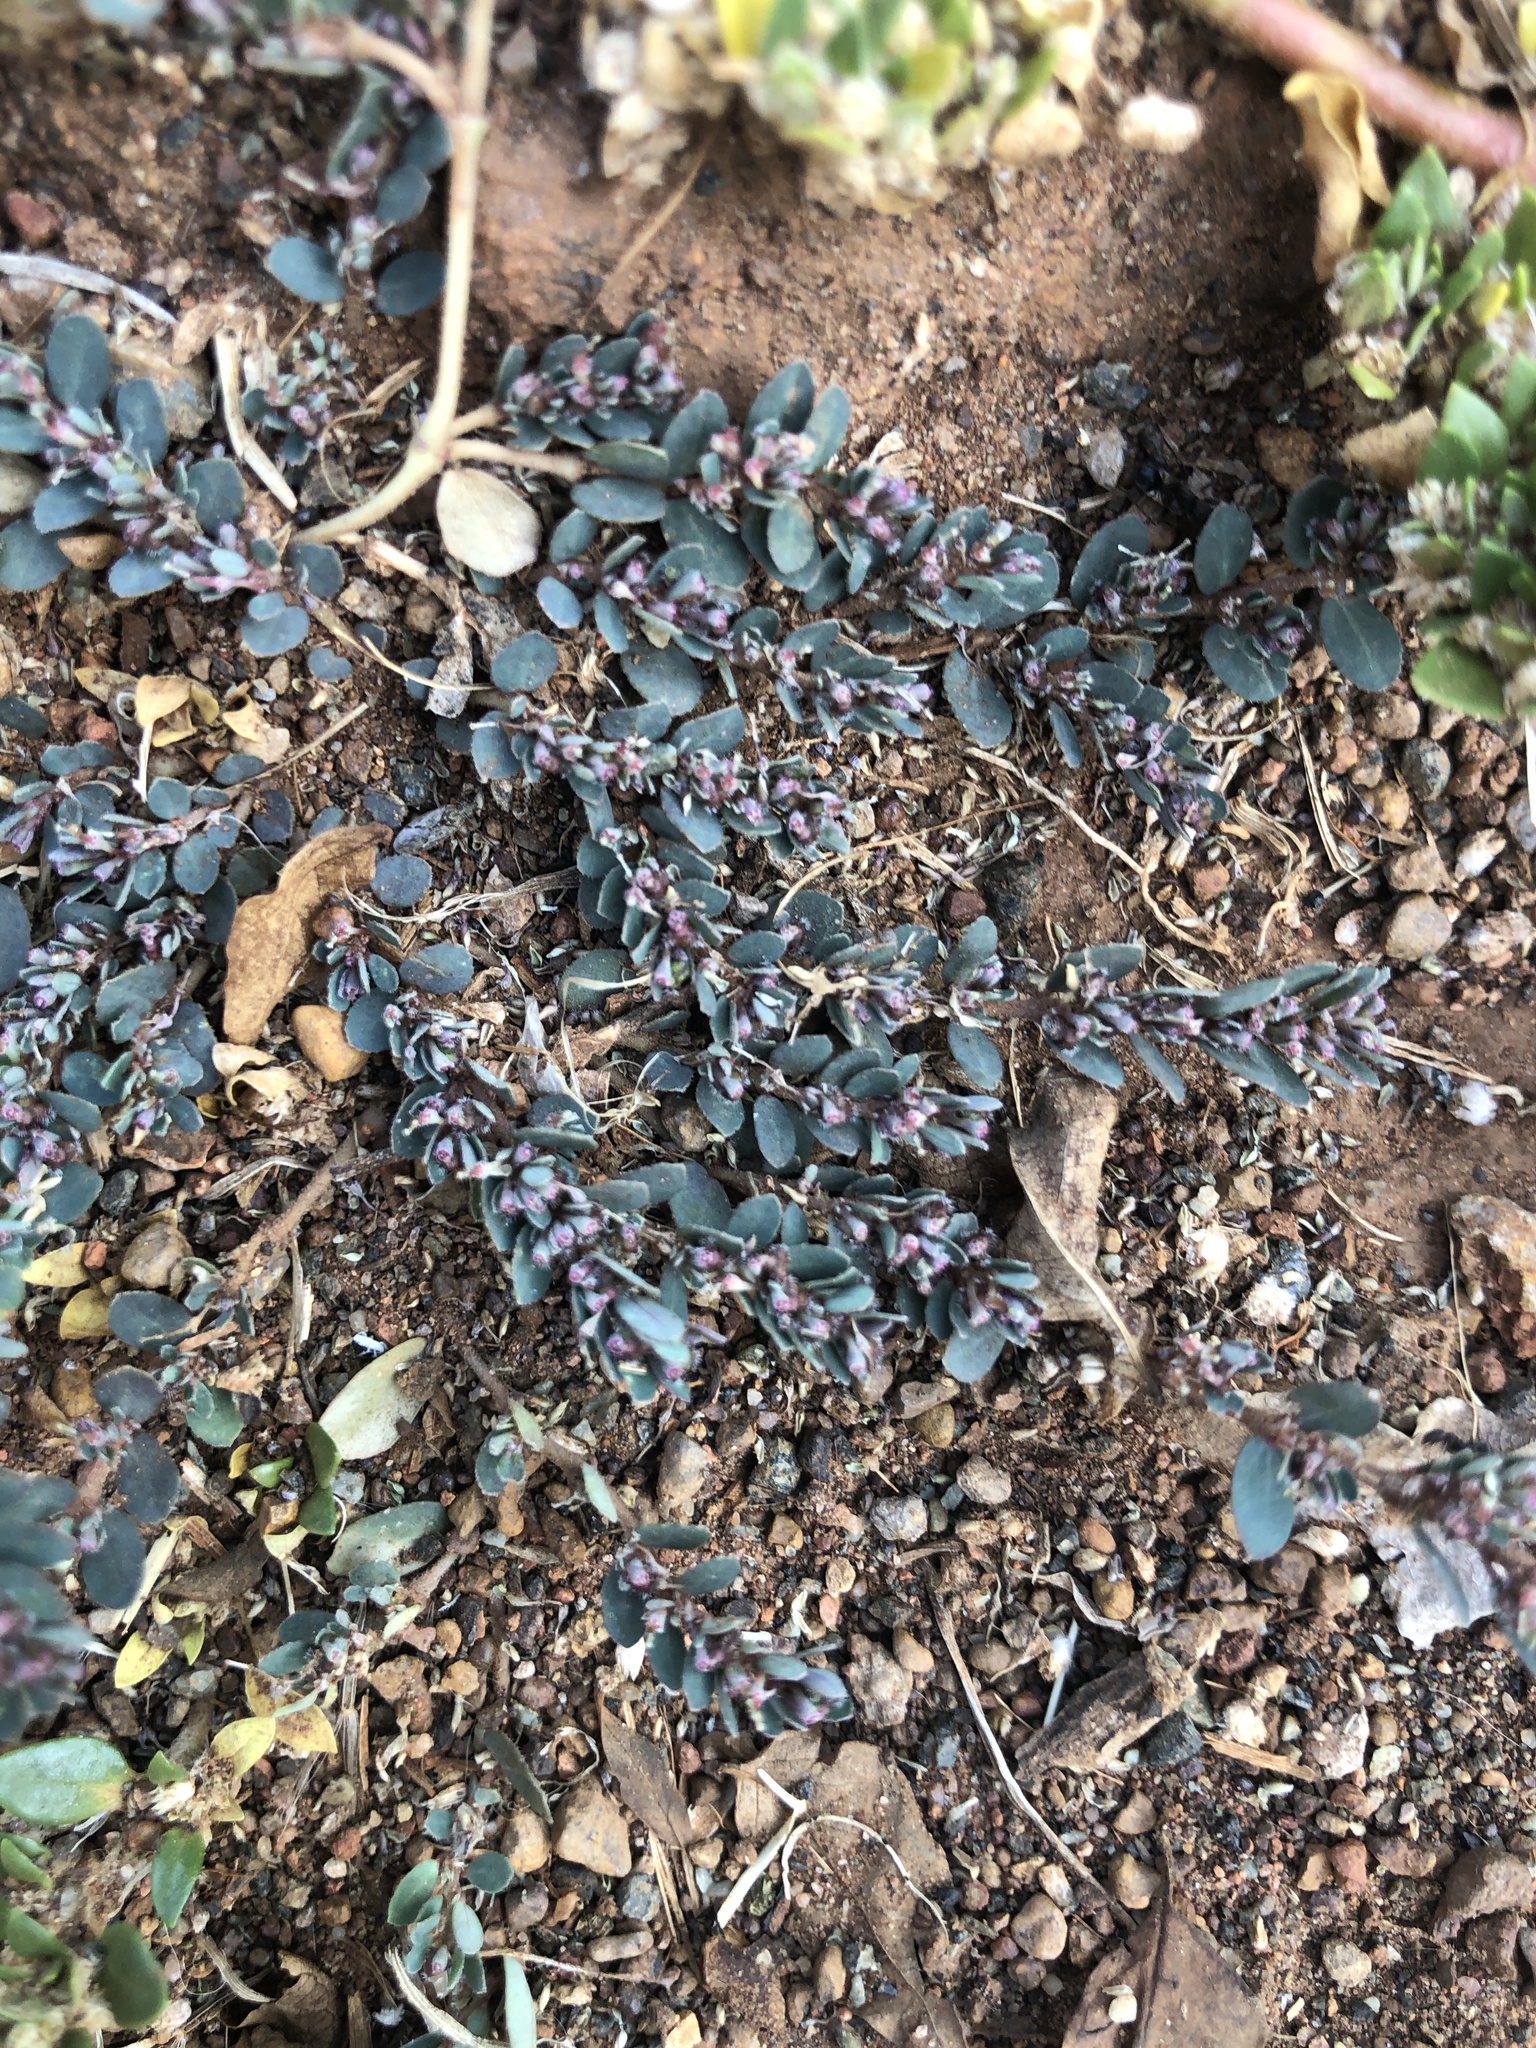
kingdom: Plantae
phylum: Tracheophyta
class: Magnoliopsida
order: Malpighiales
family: Euphorbiaceae
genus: Euphorbia
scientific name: Euphorbia prostrata
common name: Prostrate sandmat
